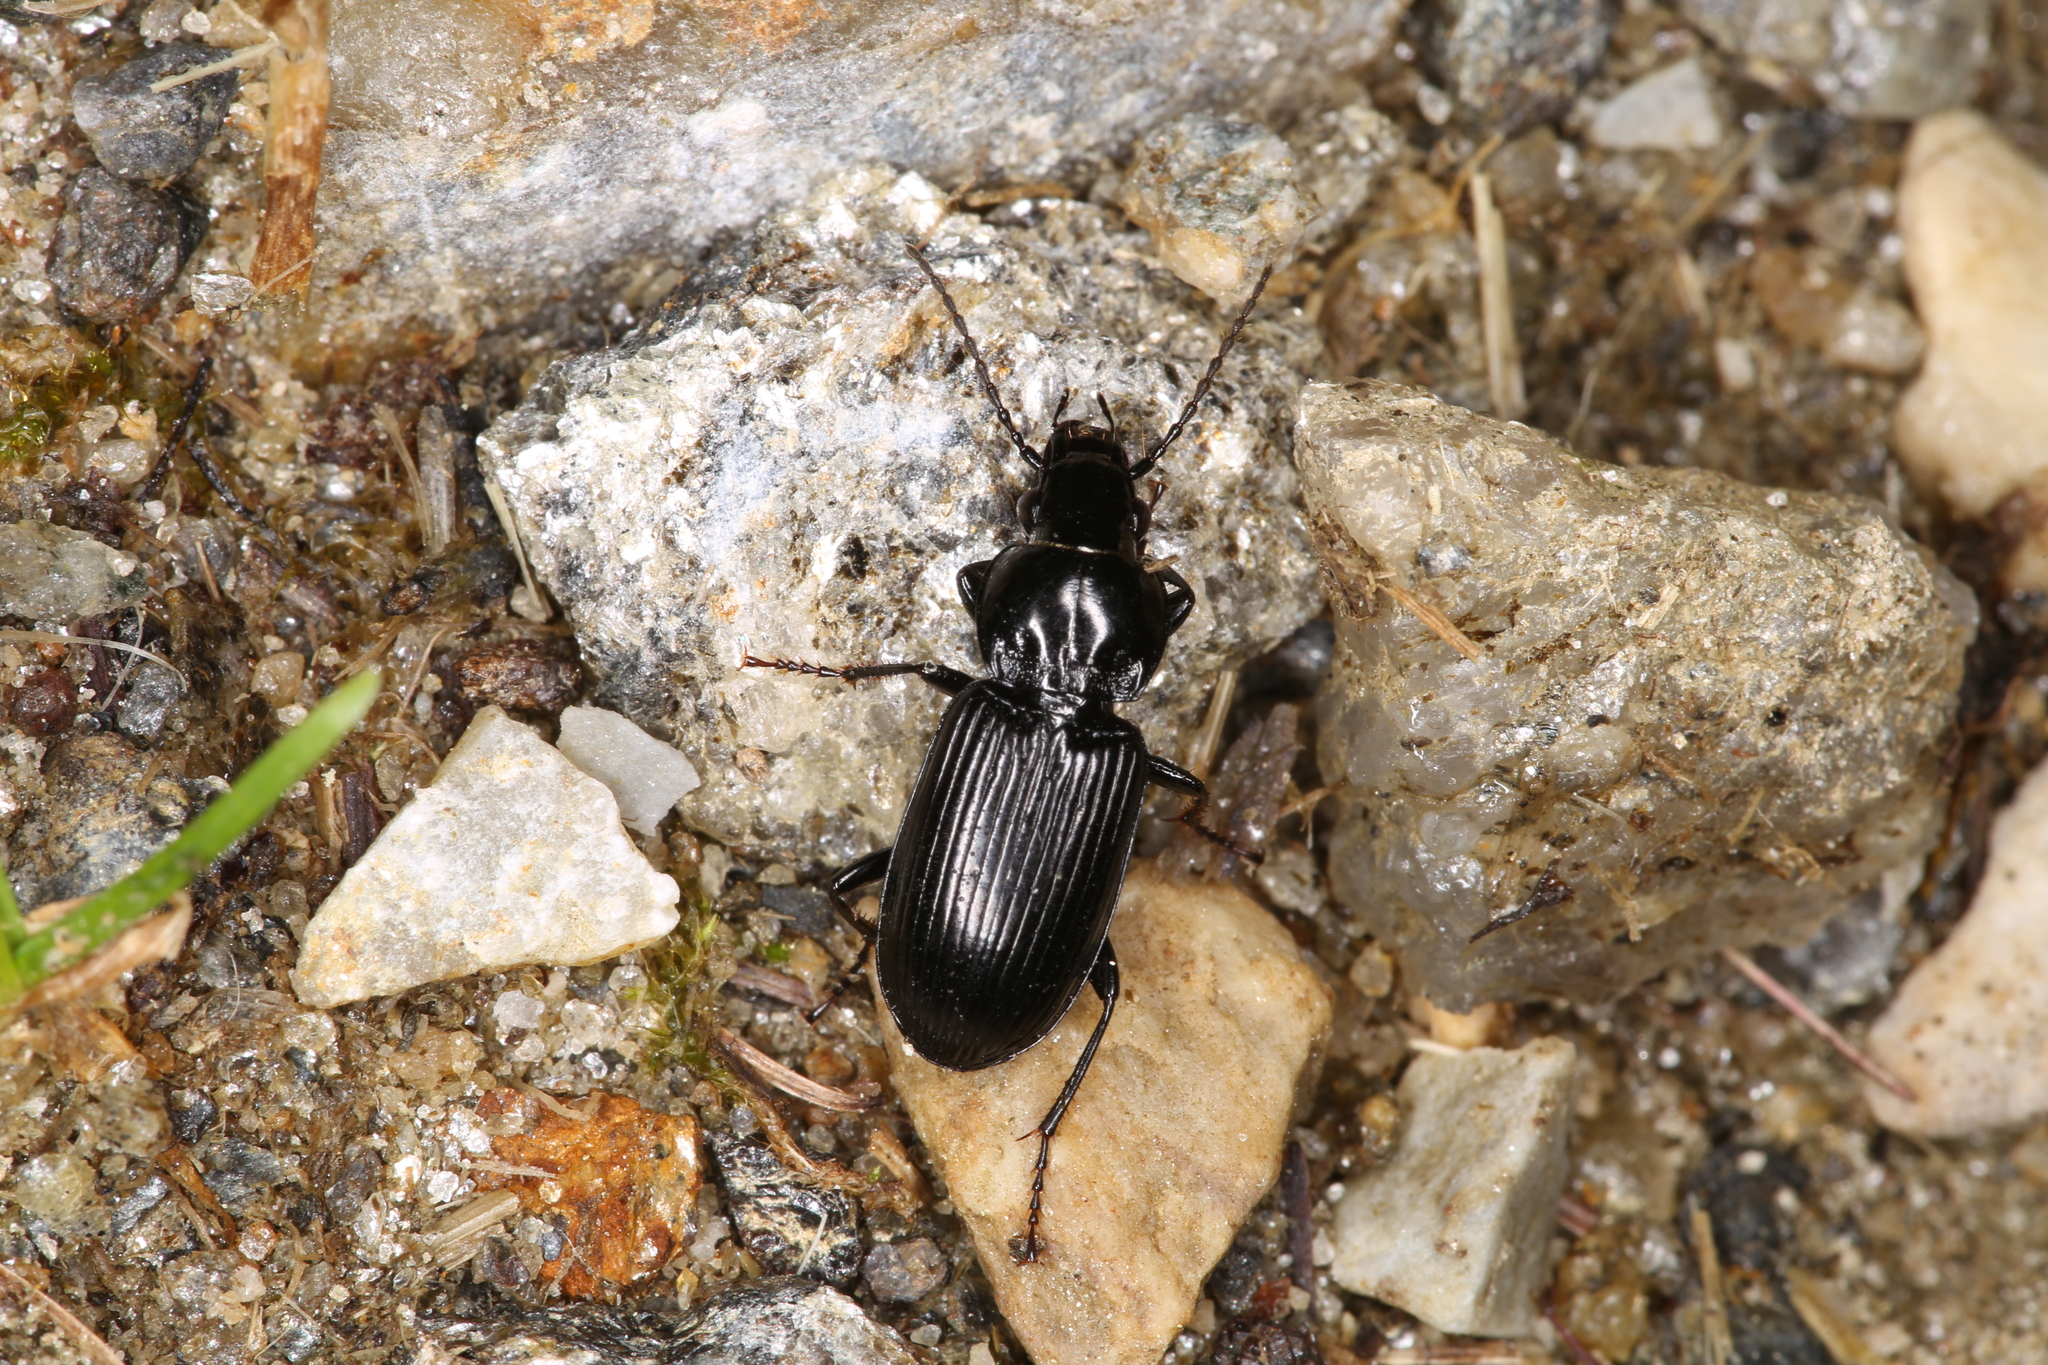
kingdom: Animalia
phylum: Arthropoda
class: Insecta
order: Coleoptera
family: Carabidae
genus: Pterostichus
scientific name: Pterostichus melanarius
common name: European dark harp ground beetle
